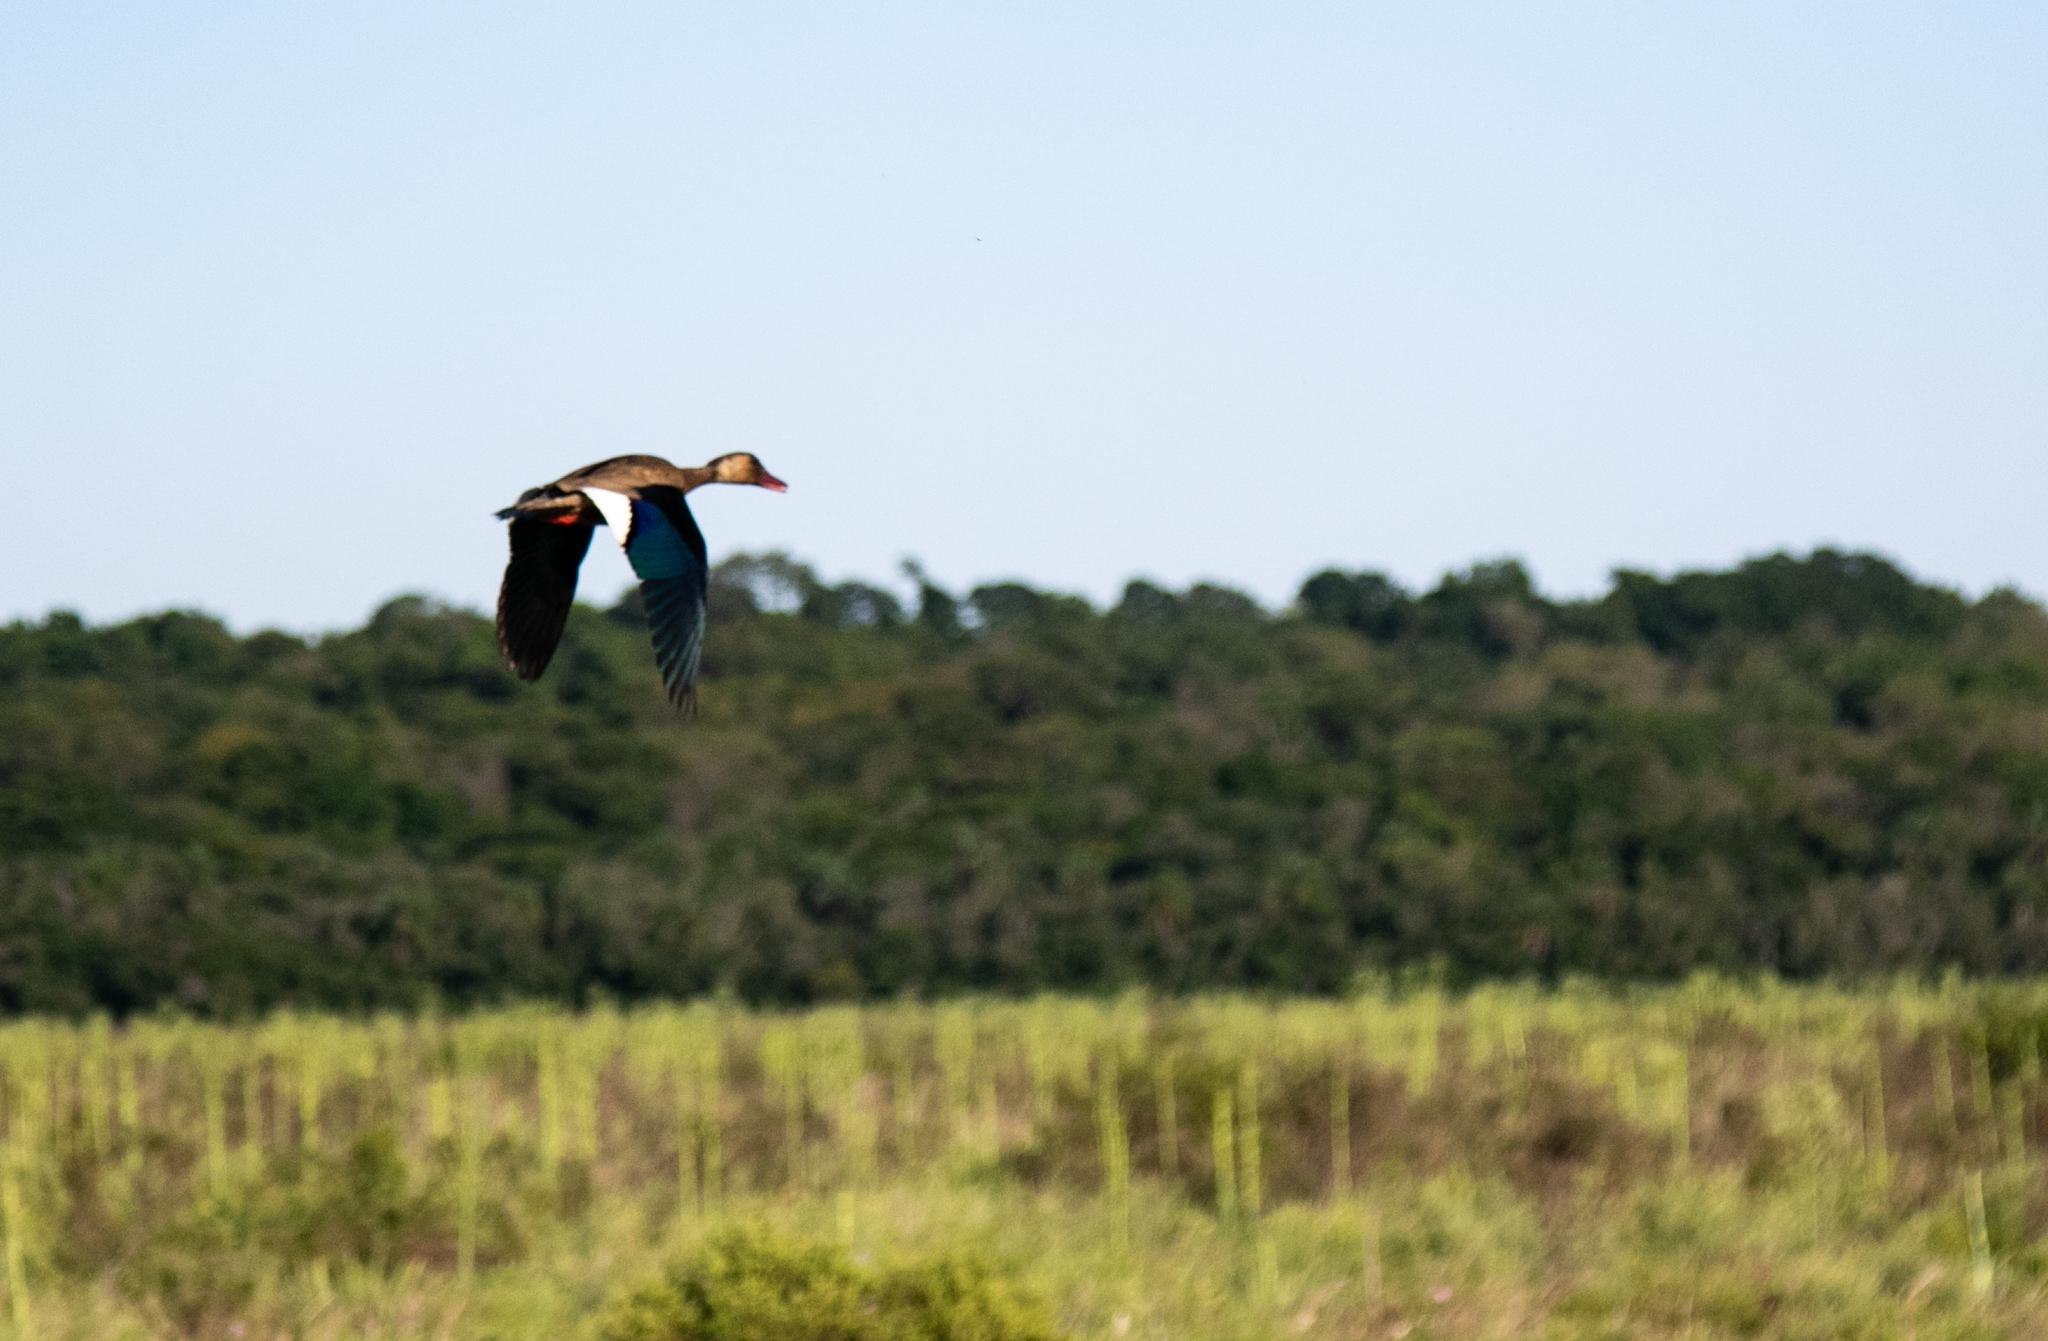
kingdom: Animalia
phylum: Chordata
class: Aves
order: Anseriformes
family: Anatidae
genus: Amazonetta
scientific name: Amazonetta brasiliensis
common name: Brazilian teal
